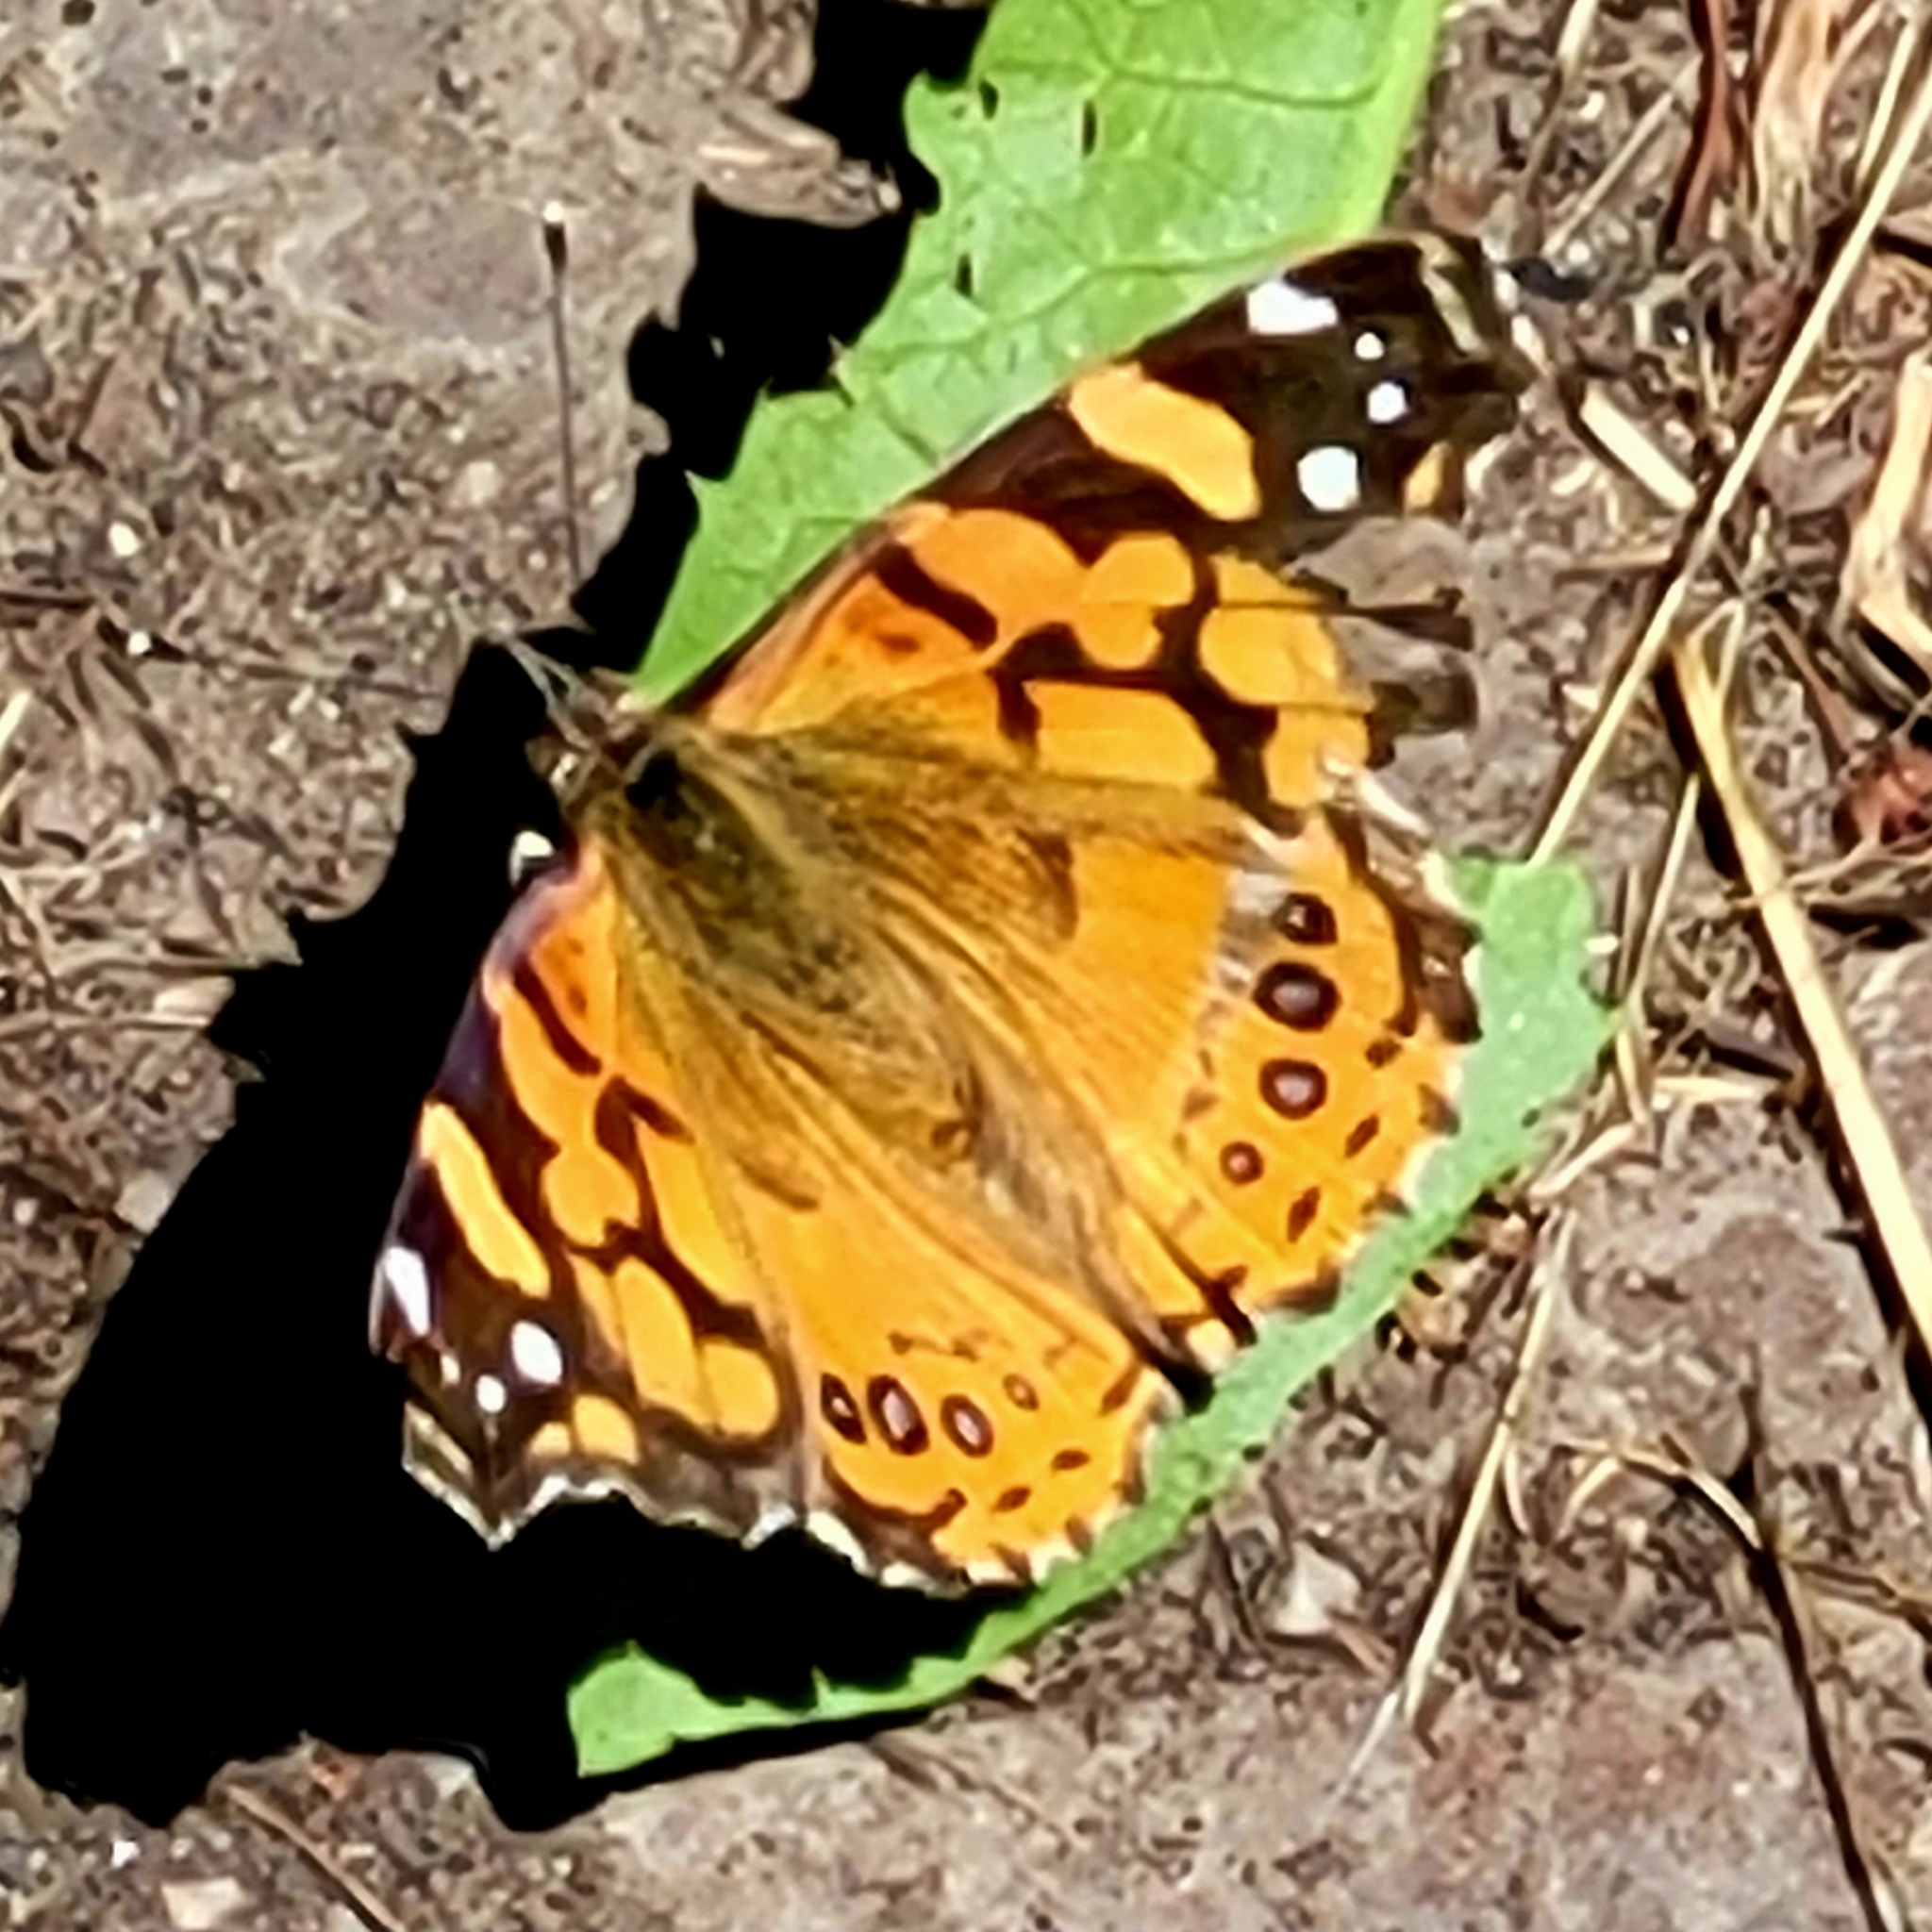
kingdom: Animalia
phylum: Arthropoda
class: Insecta
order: Lepidoptera
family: Nymphalidae
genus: Vanessa
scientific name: Vanessa annabella
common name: West coast lady
